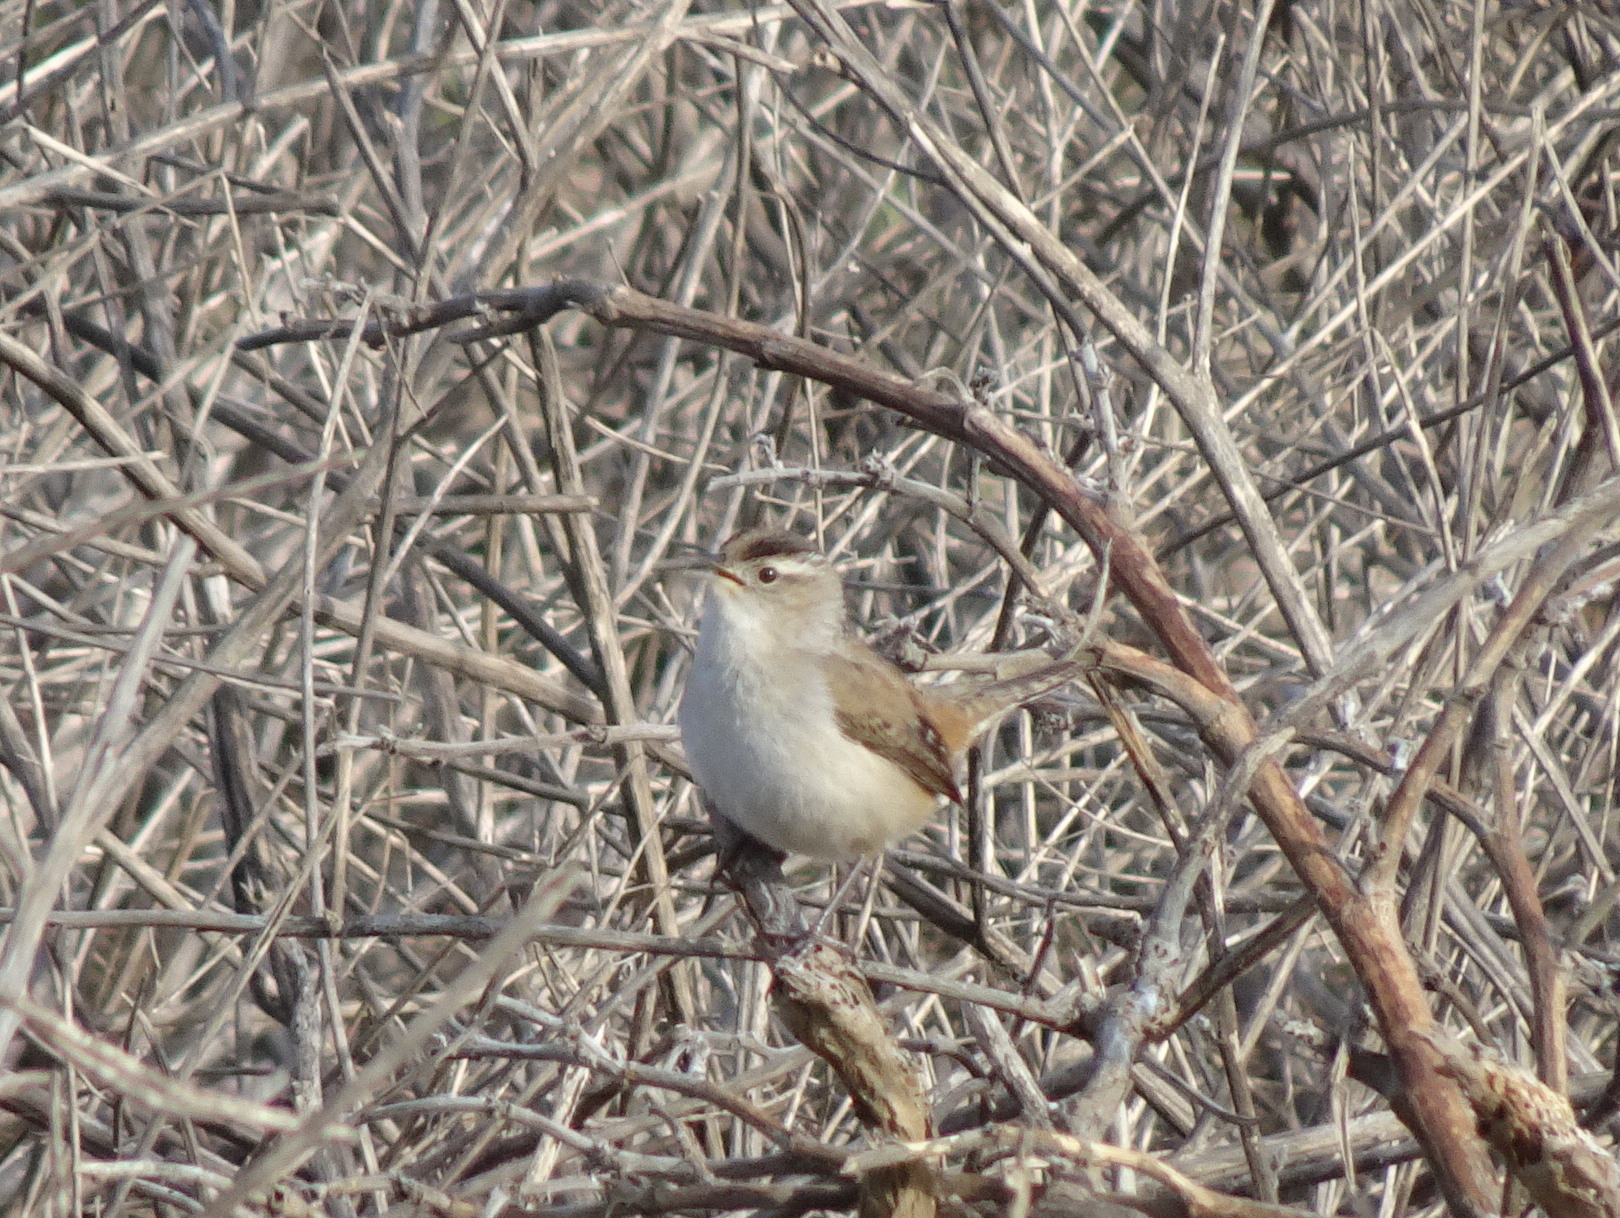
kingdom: Animalia
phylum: Chordata
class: Aves
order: Passeriformes
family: Troglodytidae
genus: Cistothorus
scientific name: Cistothorus palustris
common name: Marsh wren
